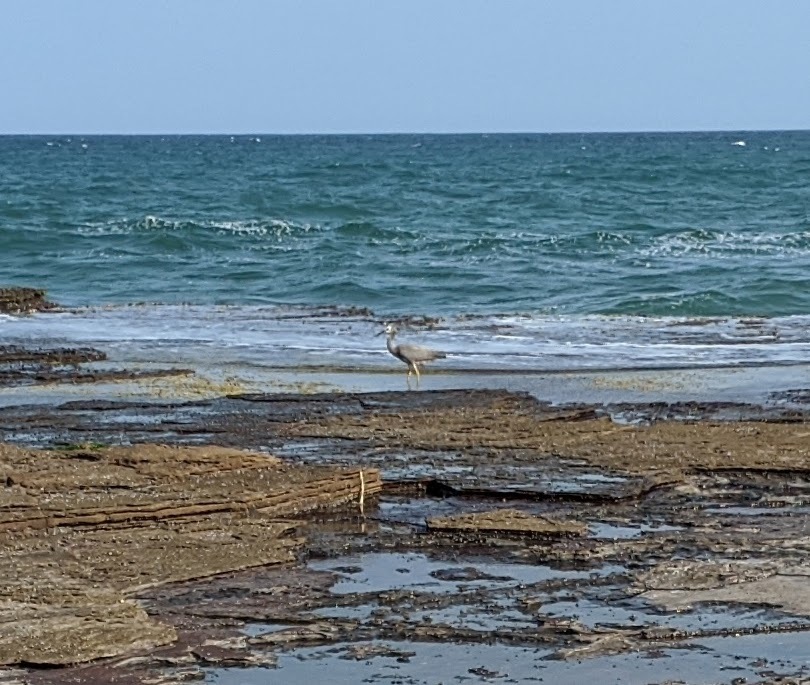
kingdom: Animalia
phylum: Chordata
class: Aves
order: Pelecaniformes
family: Ardeidae
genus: Egretta
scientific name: Egretta novaehollandiae
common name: White-faced heron
